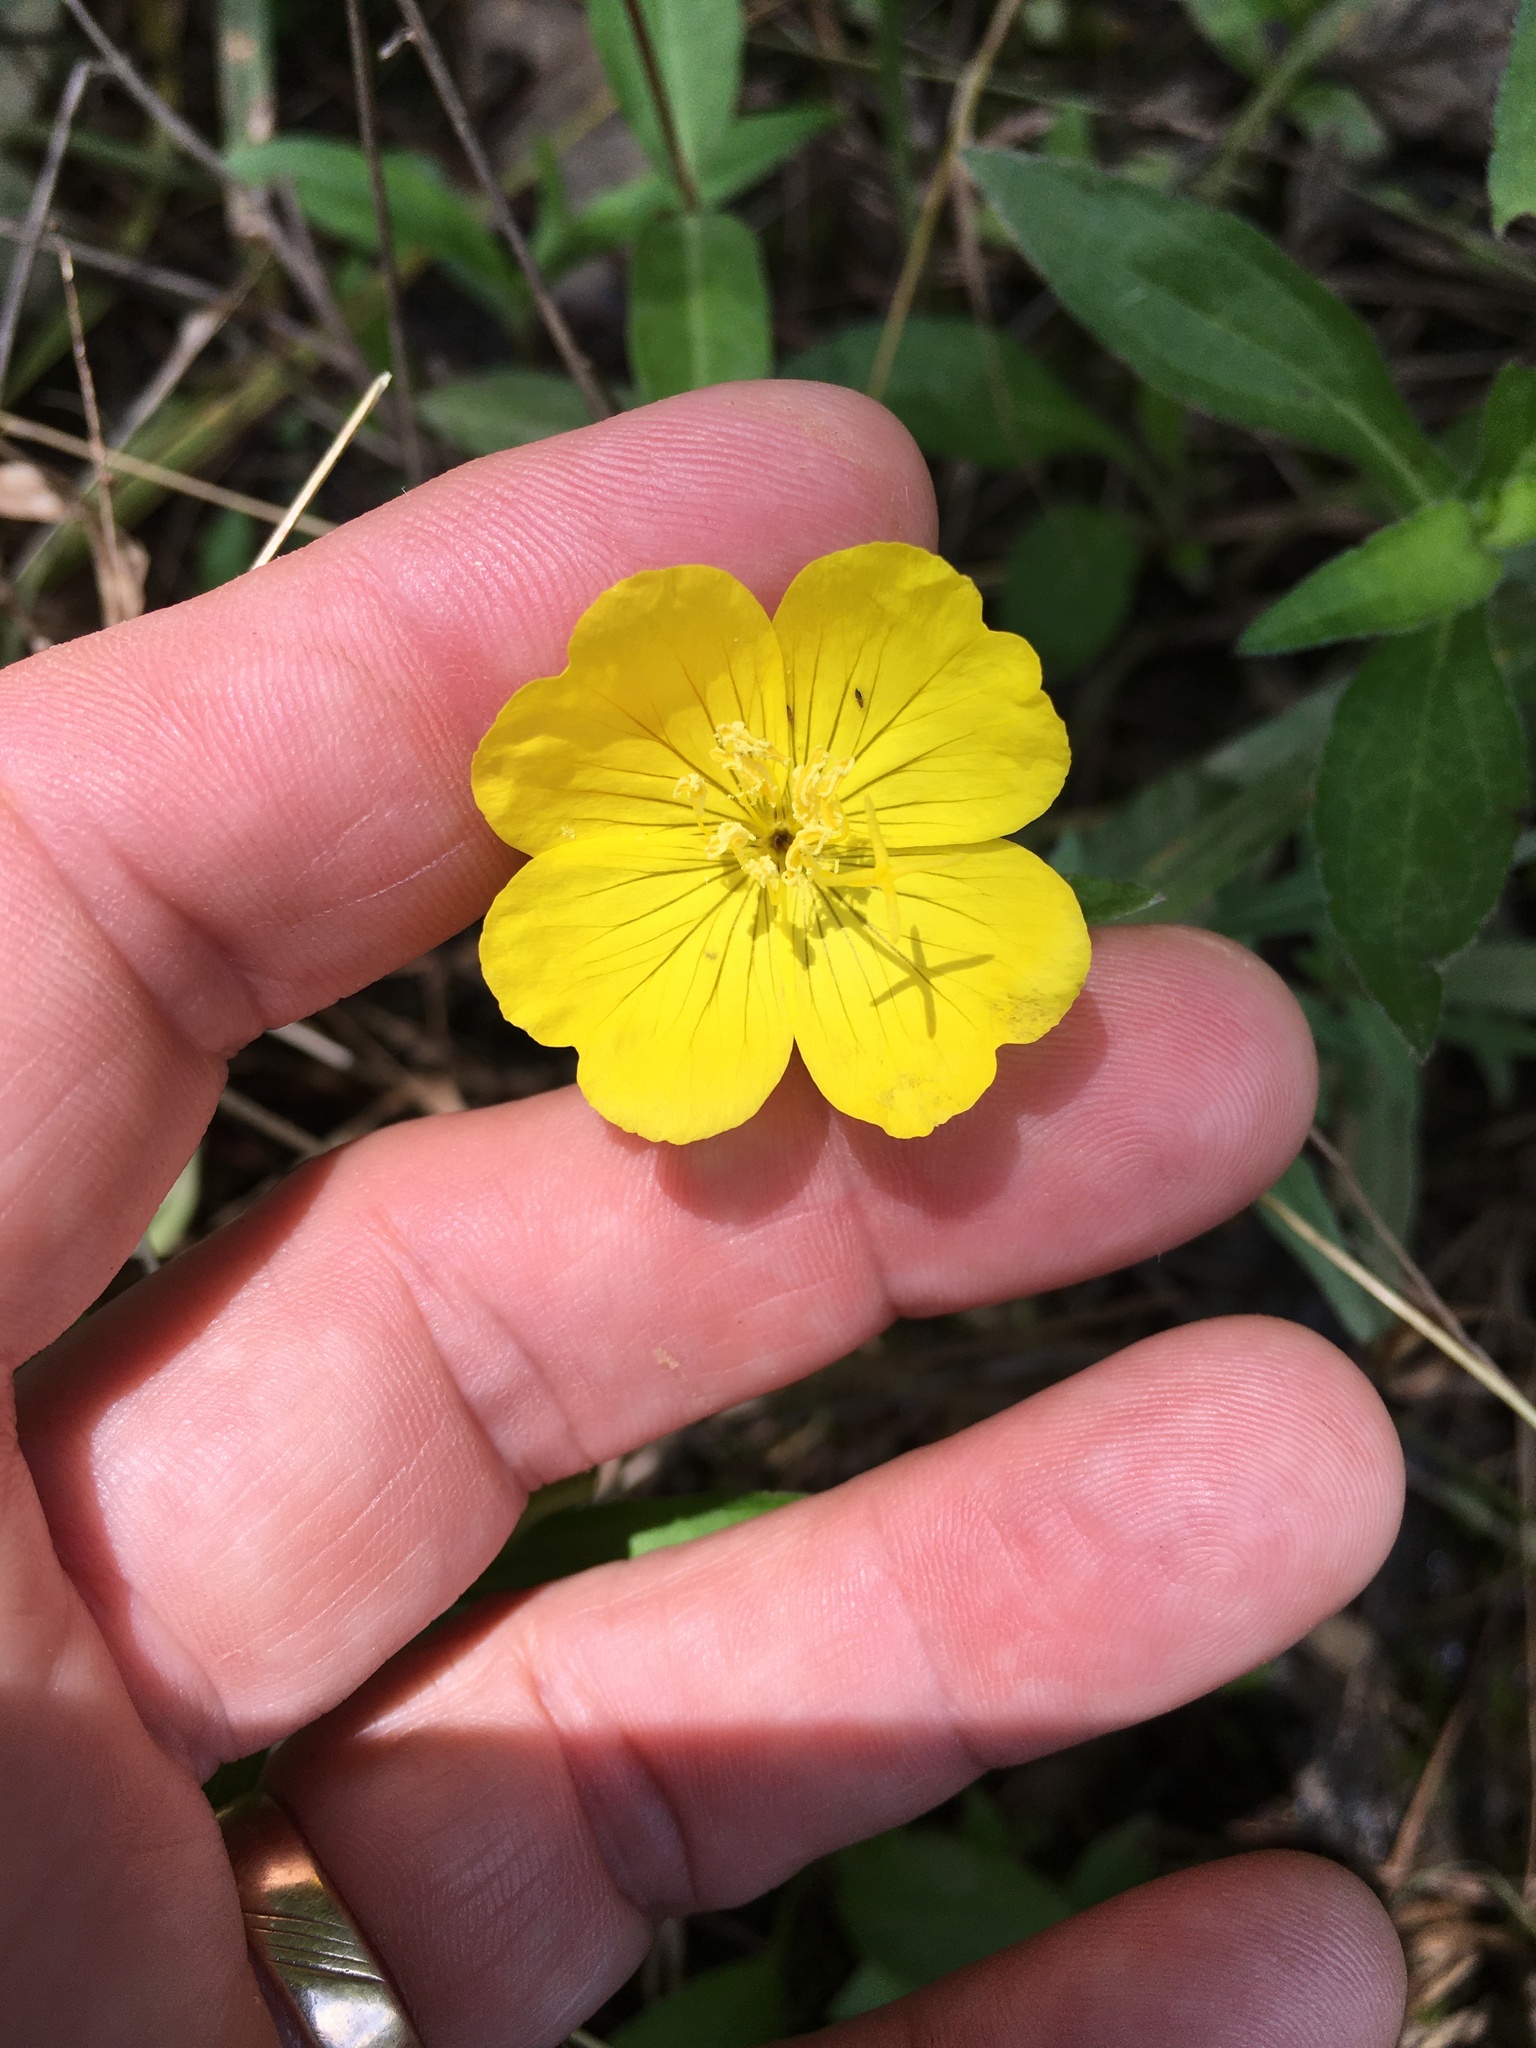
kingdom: Plantae
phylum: Tracheophyta
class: Magnoliopsida
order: Myrtales
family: Onagraceae
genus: Oenothera
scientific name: Oenothera fruticosa
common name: Southern sundrops
